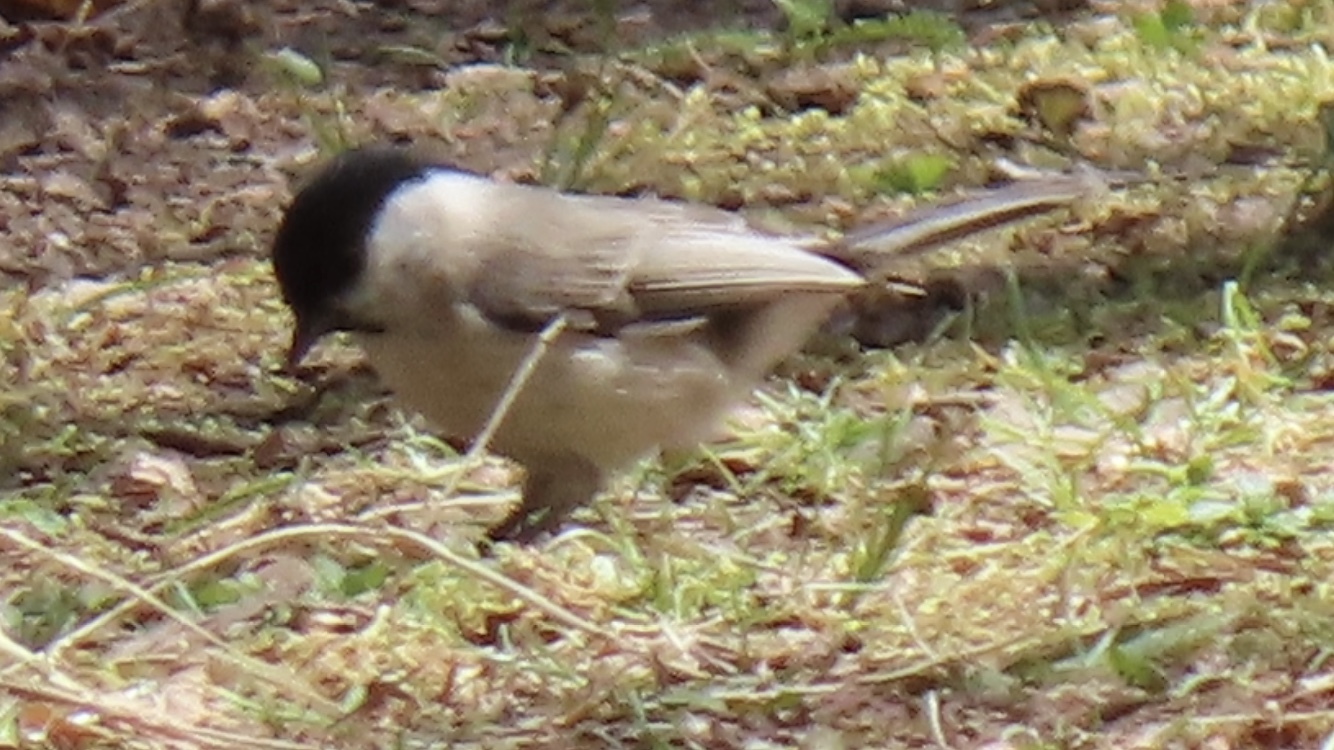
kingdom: Animalia
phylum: Chordata
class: Aves
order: Passeriformes
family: Paridae
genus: Poecile
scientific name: Poecile montanus
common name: Willow tit
